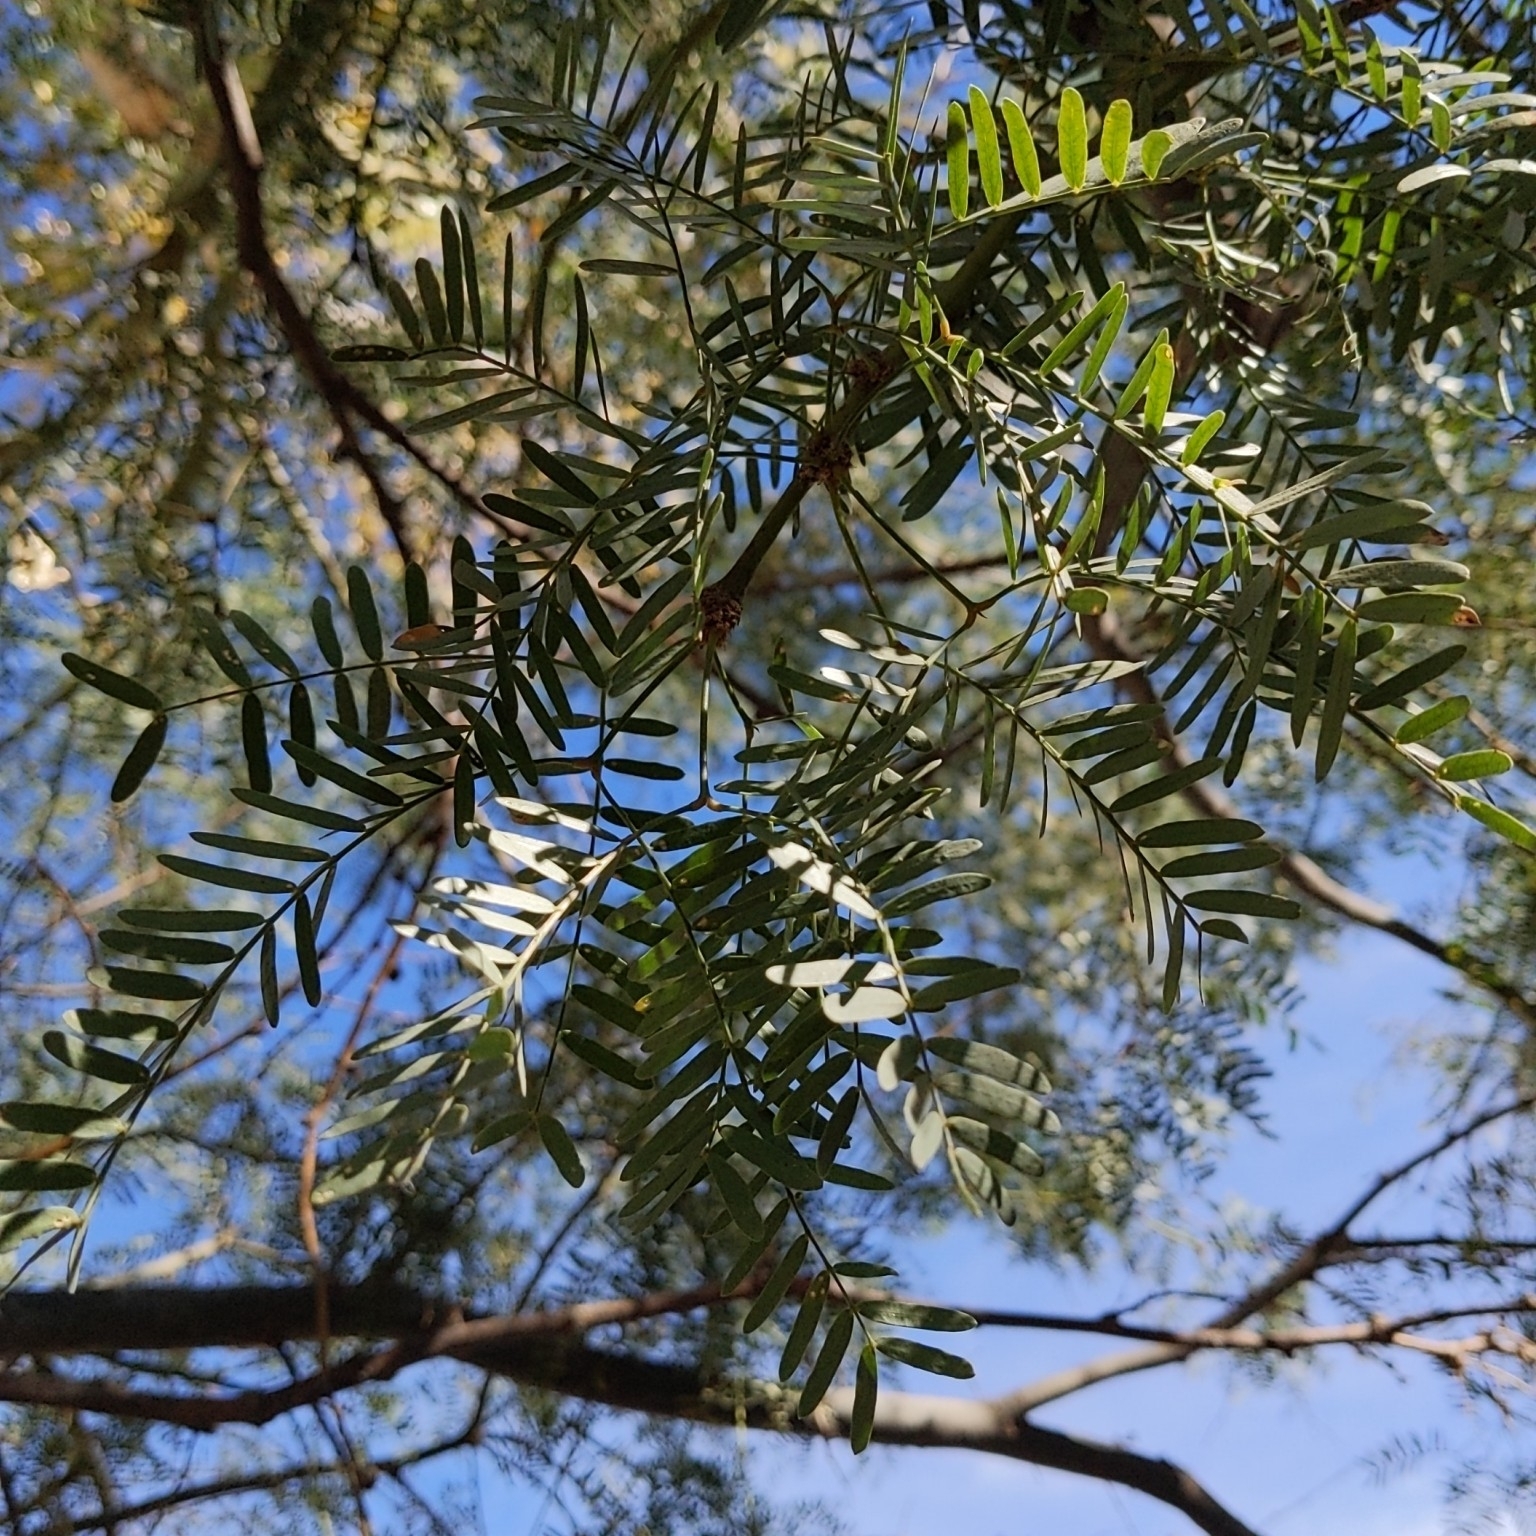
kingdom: Plantae
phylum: Tracheophyta
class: Magnoliopsida
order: Fabales
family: Fabaceae
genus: Prosopis
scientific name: Prosopis pubescens
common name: Screw-bean
